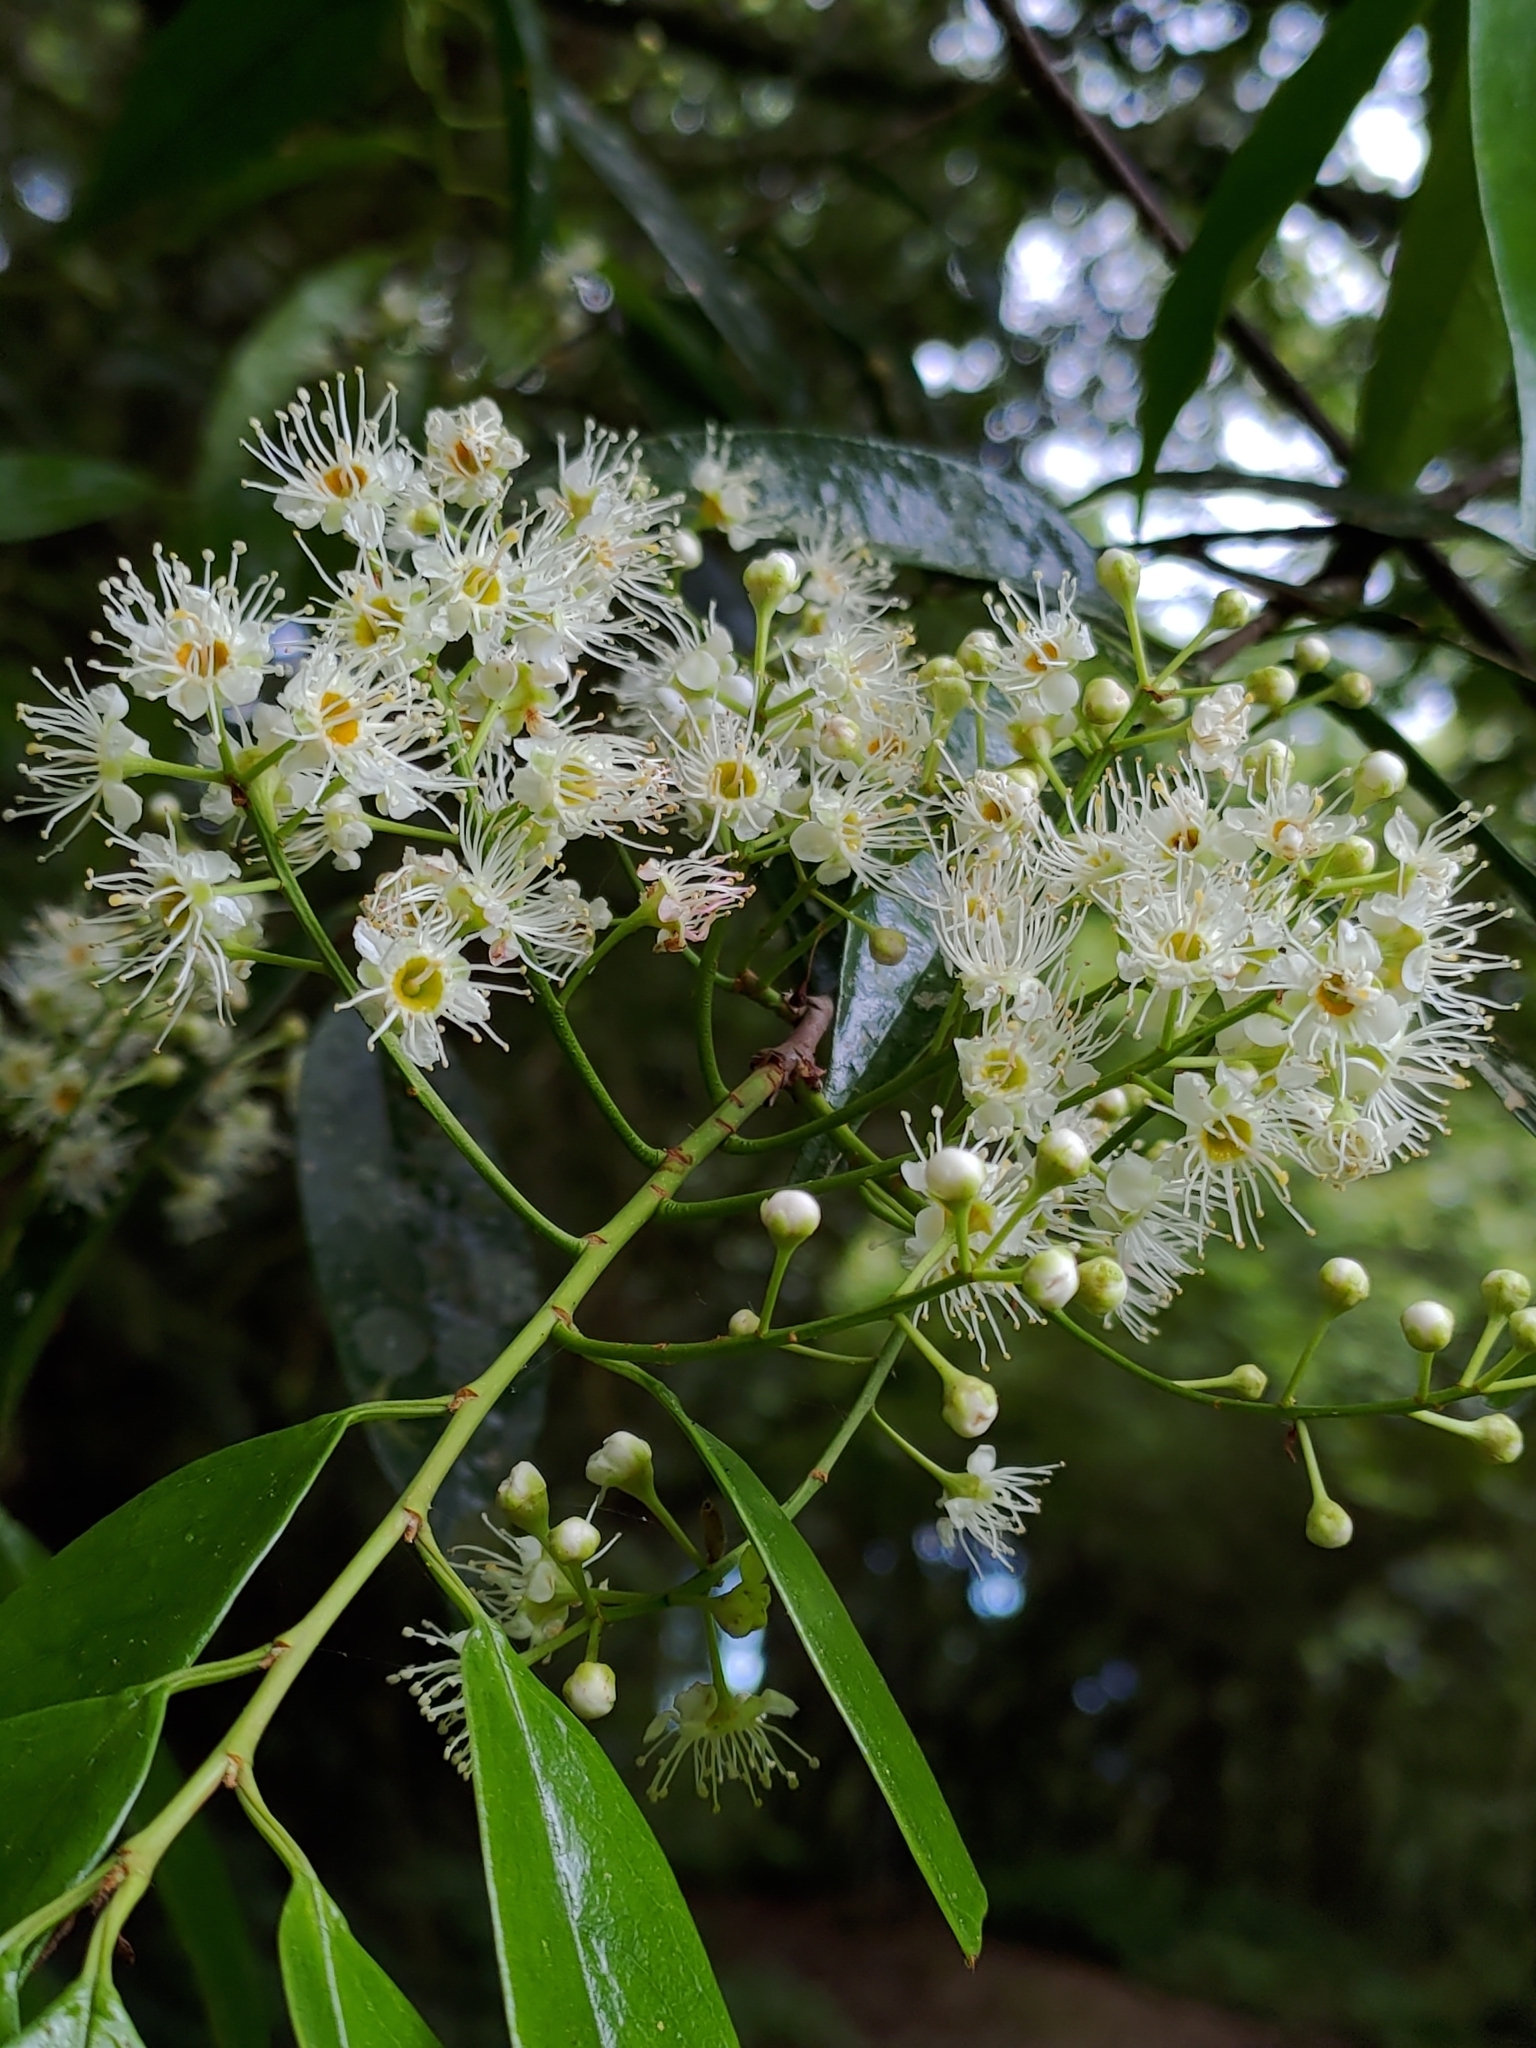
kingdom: Plantae
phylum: Tracheophyta
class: Magnoliopsida
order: Rosales
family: Rosaceae
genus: Prunus
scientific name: Prunus phaeosticta
